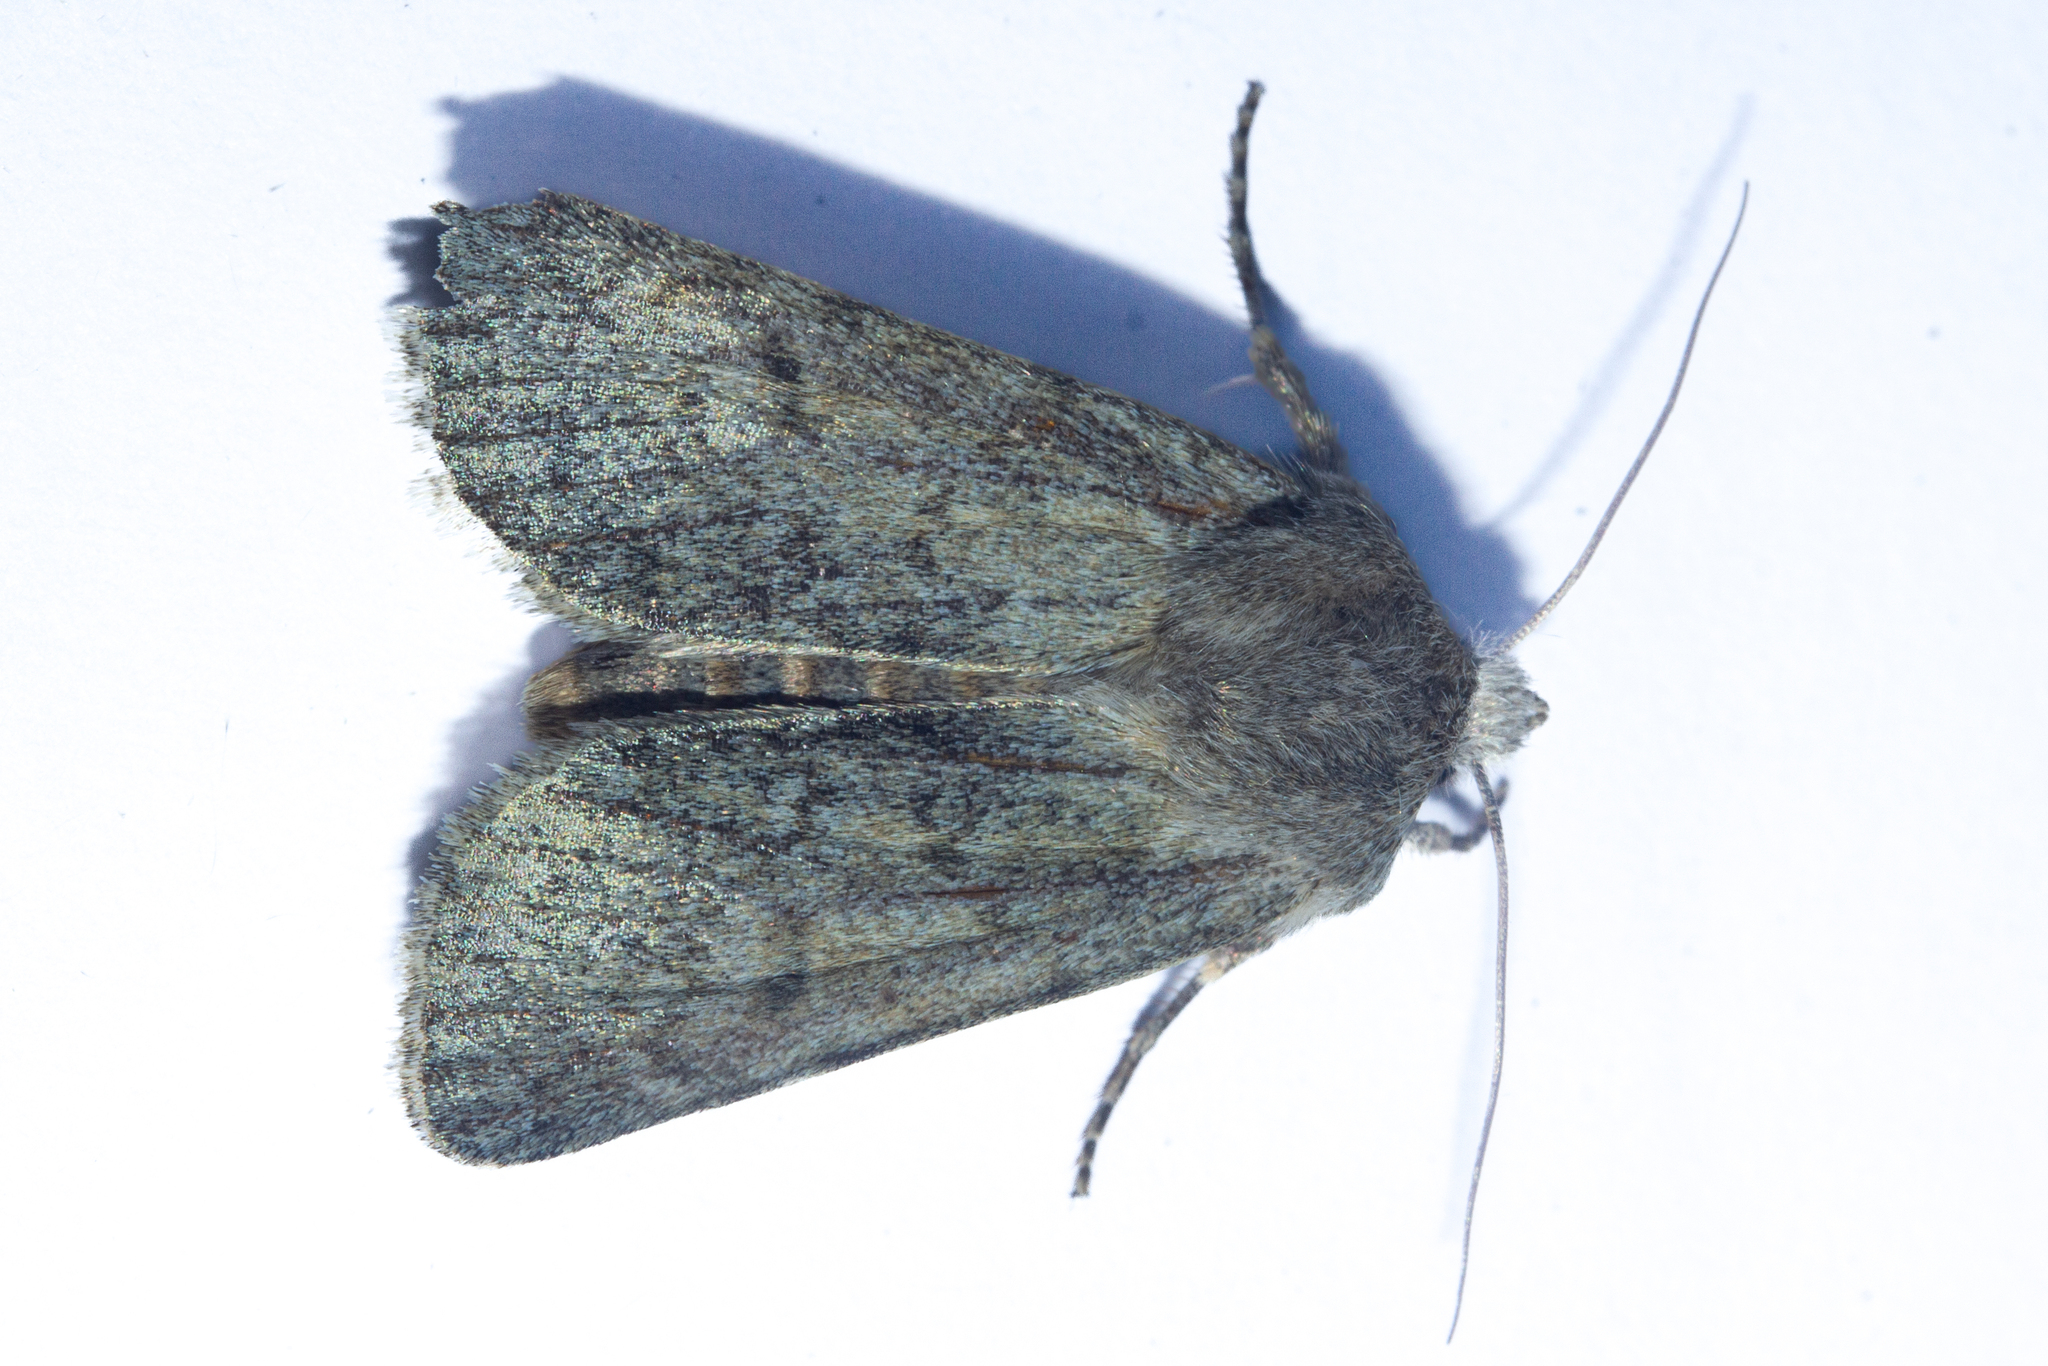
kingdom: Animalia
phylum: Arthropoda
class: Insecta
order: Lepidoptera
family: Noctuidae
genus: Physetica
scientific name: Physetica caerulea
